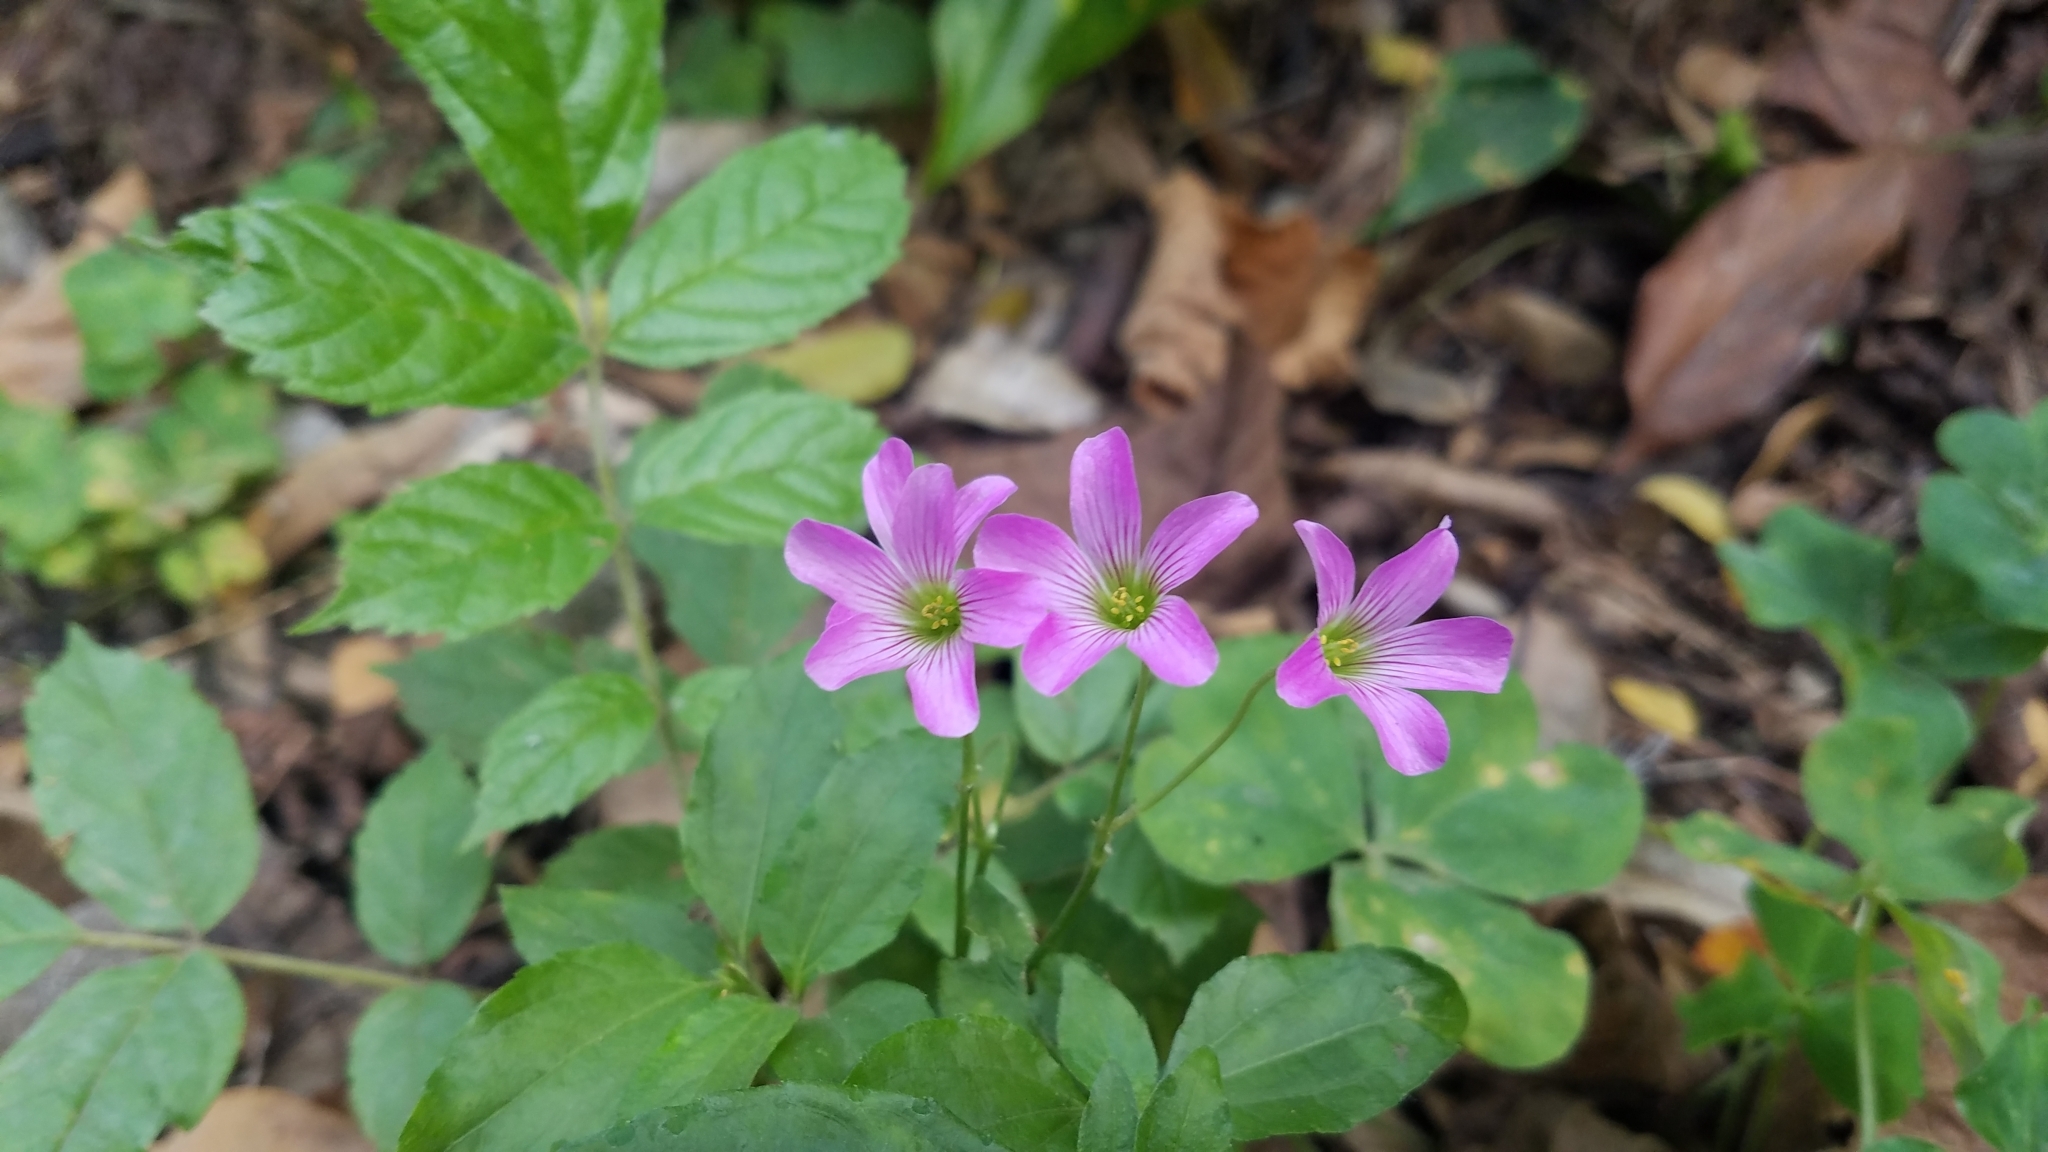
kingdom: Plantae
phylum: Tracheophyta
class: Magnoliopsida
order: Oxalidales
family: Oxalidaceae
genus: Oxalis
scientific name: Oxalis debilis
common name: Large-flowered pink-sorrel
